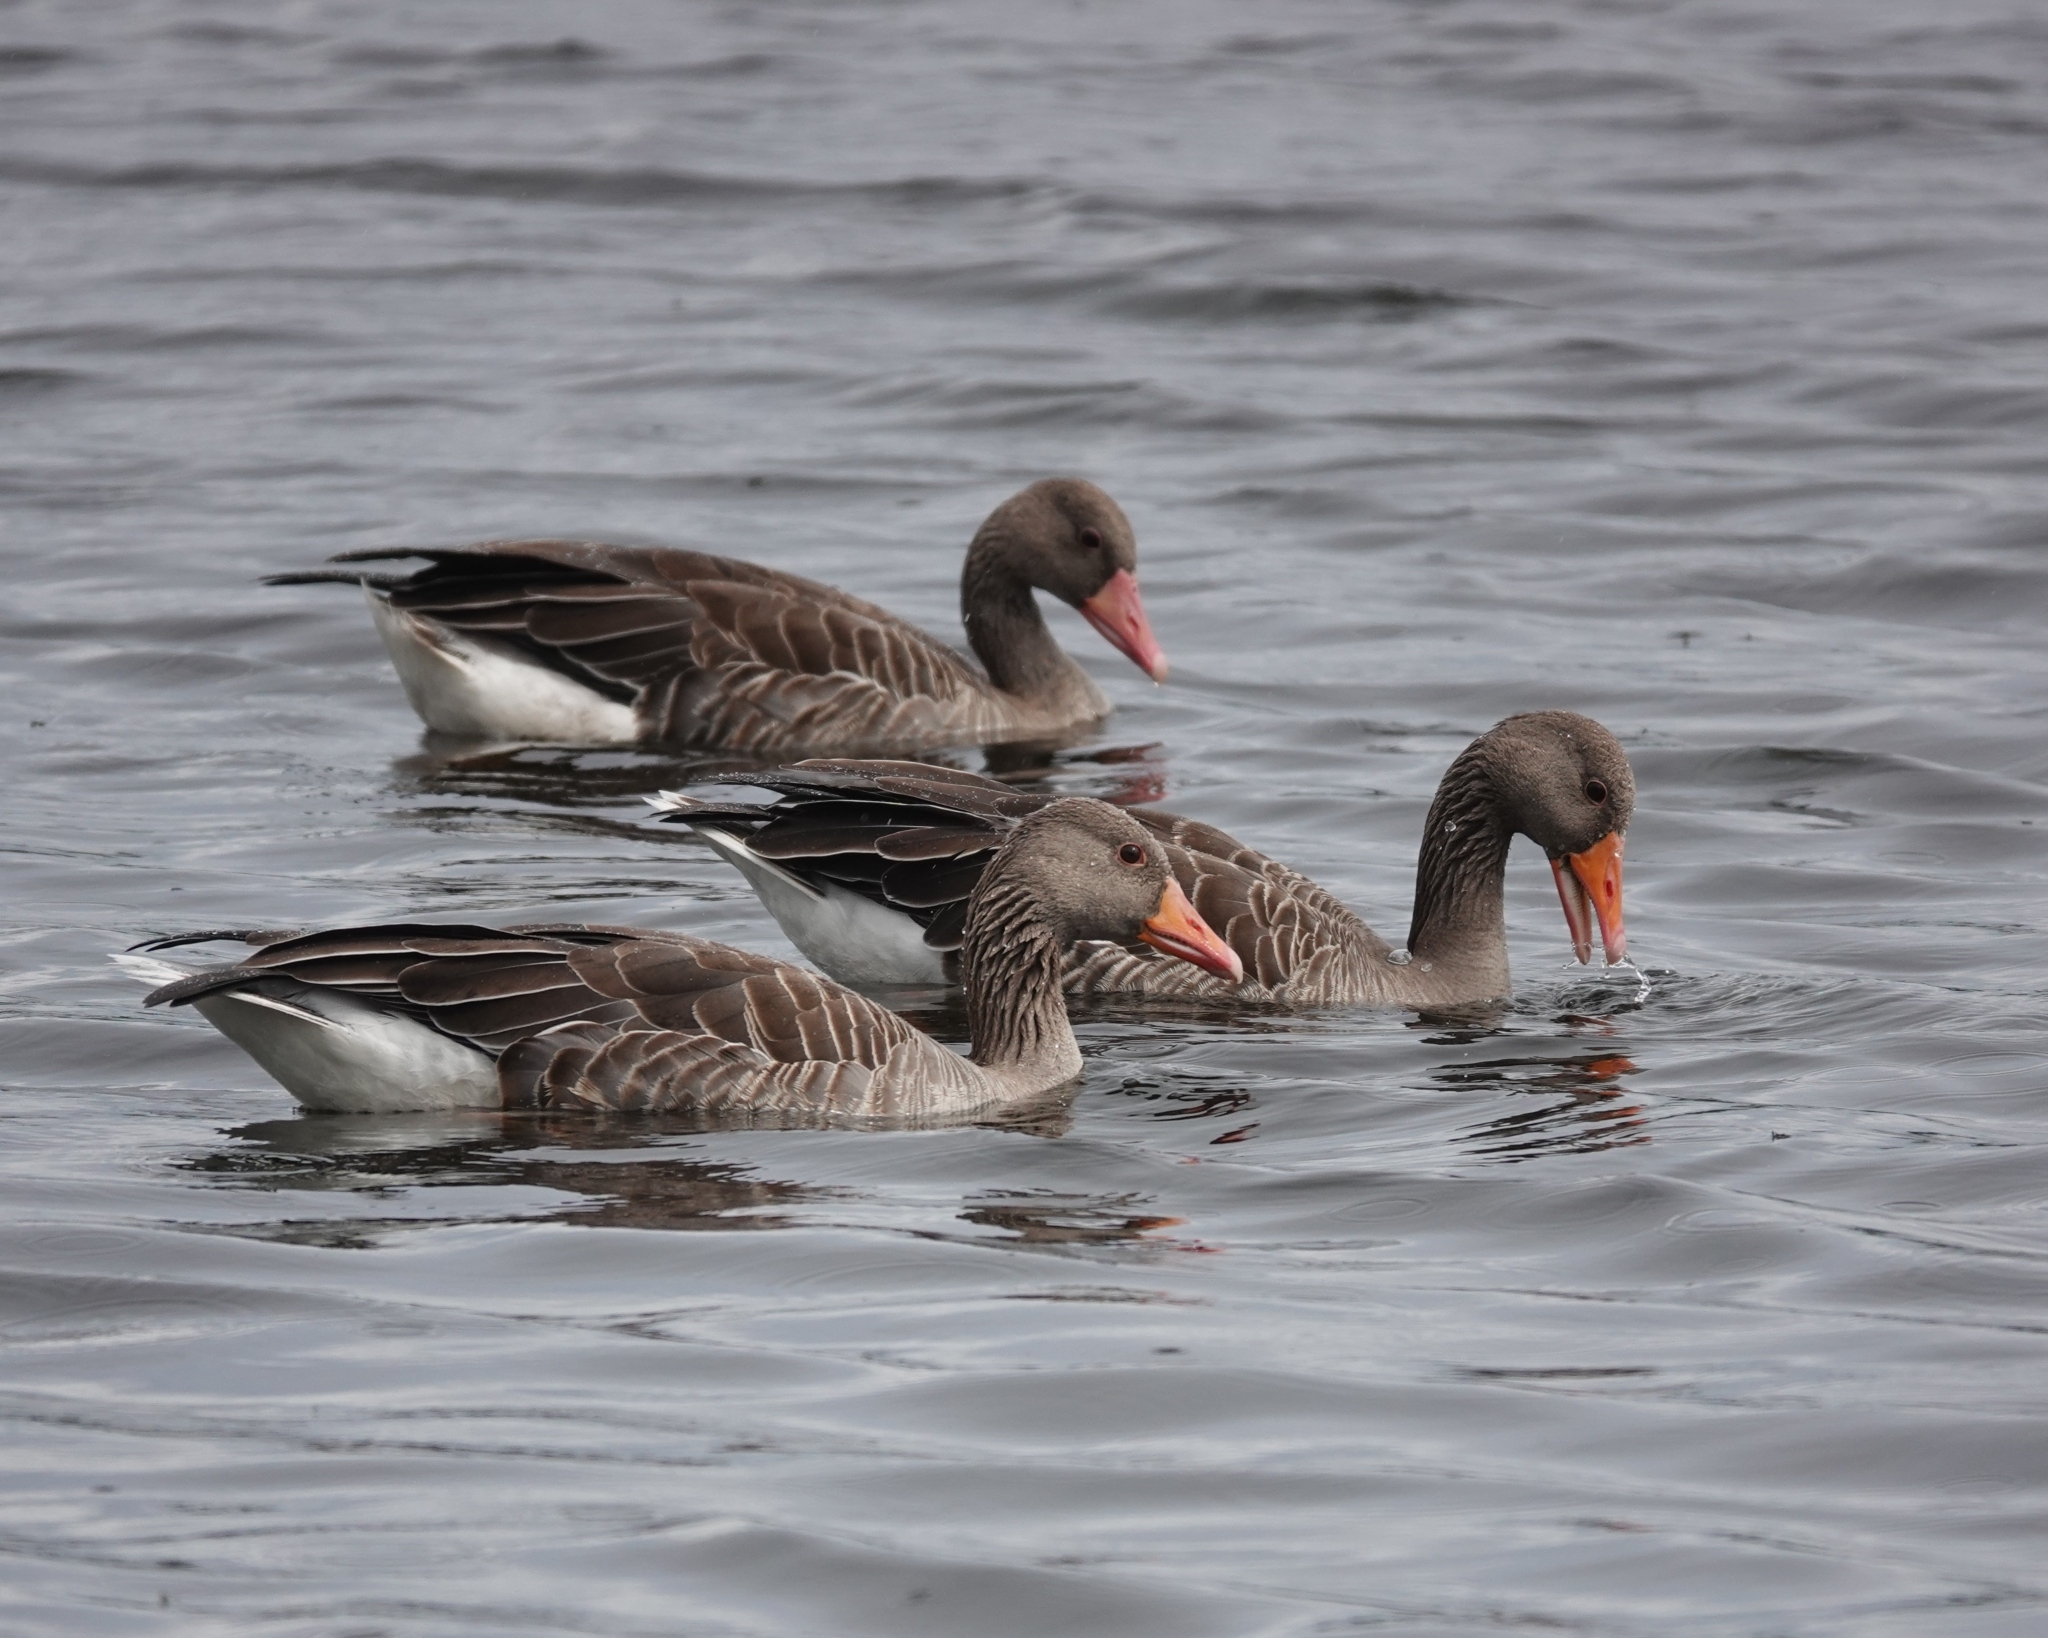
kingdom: Animalia
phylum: Chordata
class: Aves
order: Anseriformes
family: Anatidae
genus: Anser
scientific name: Anser anser
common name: Greylag goose
